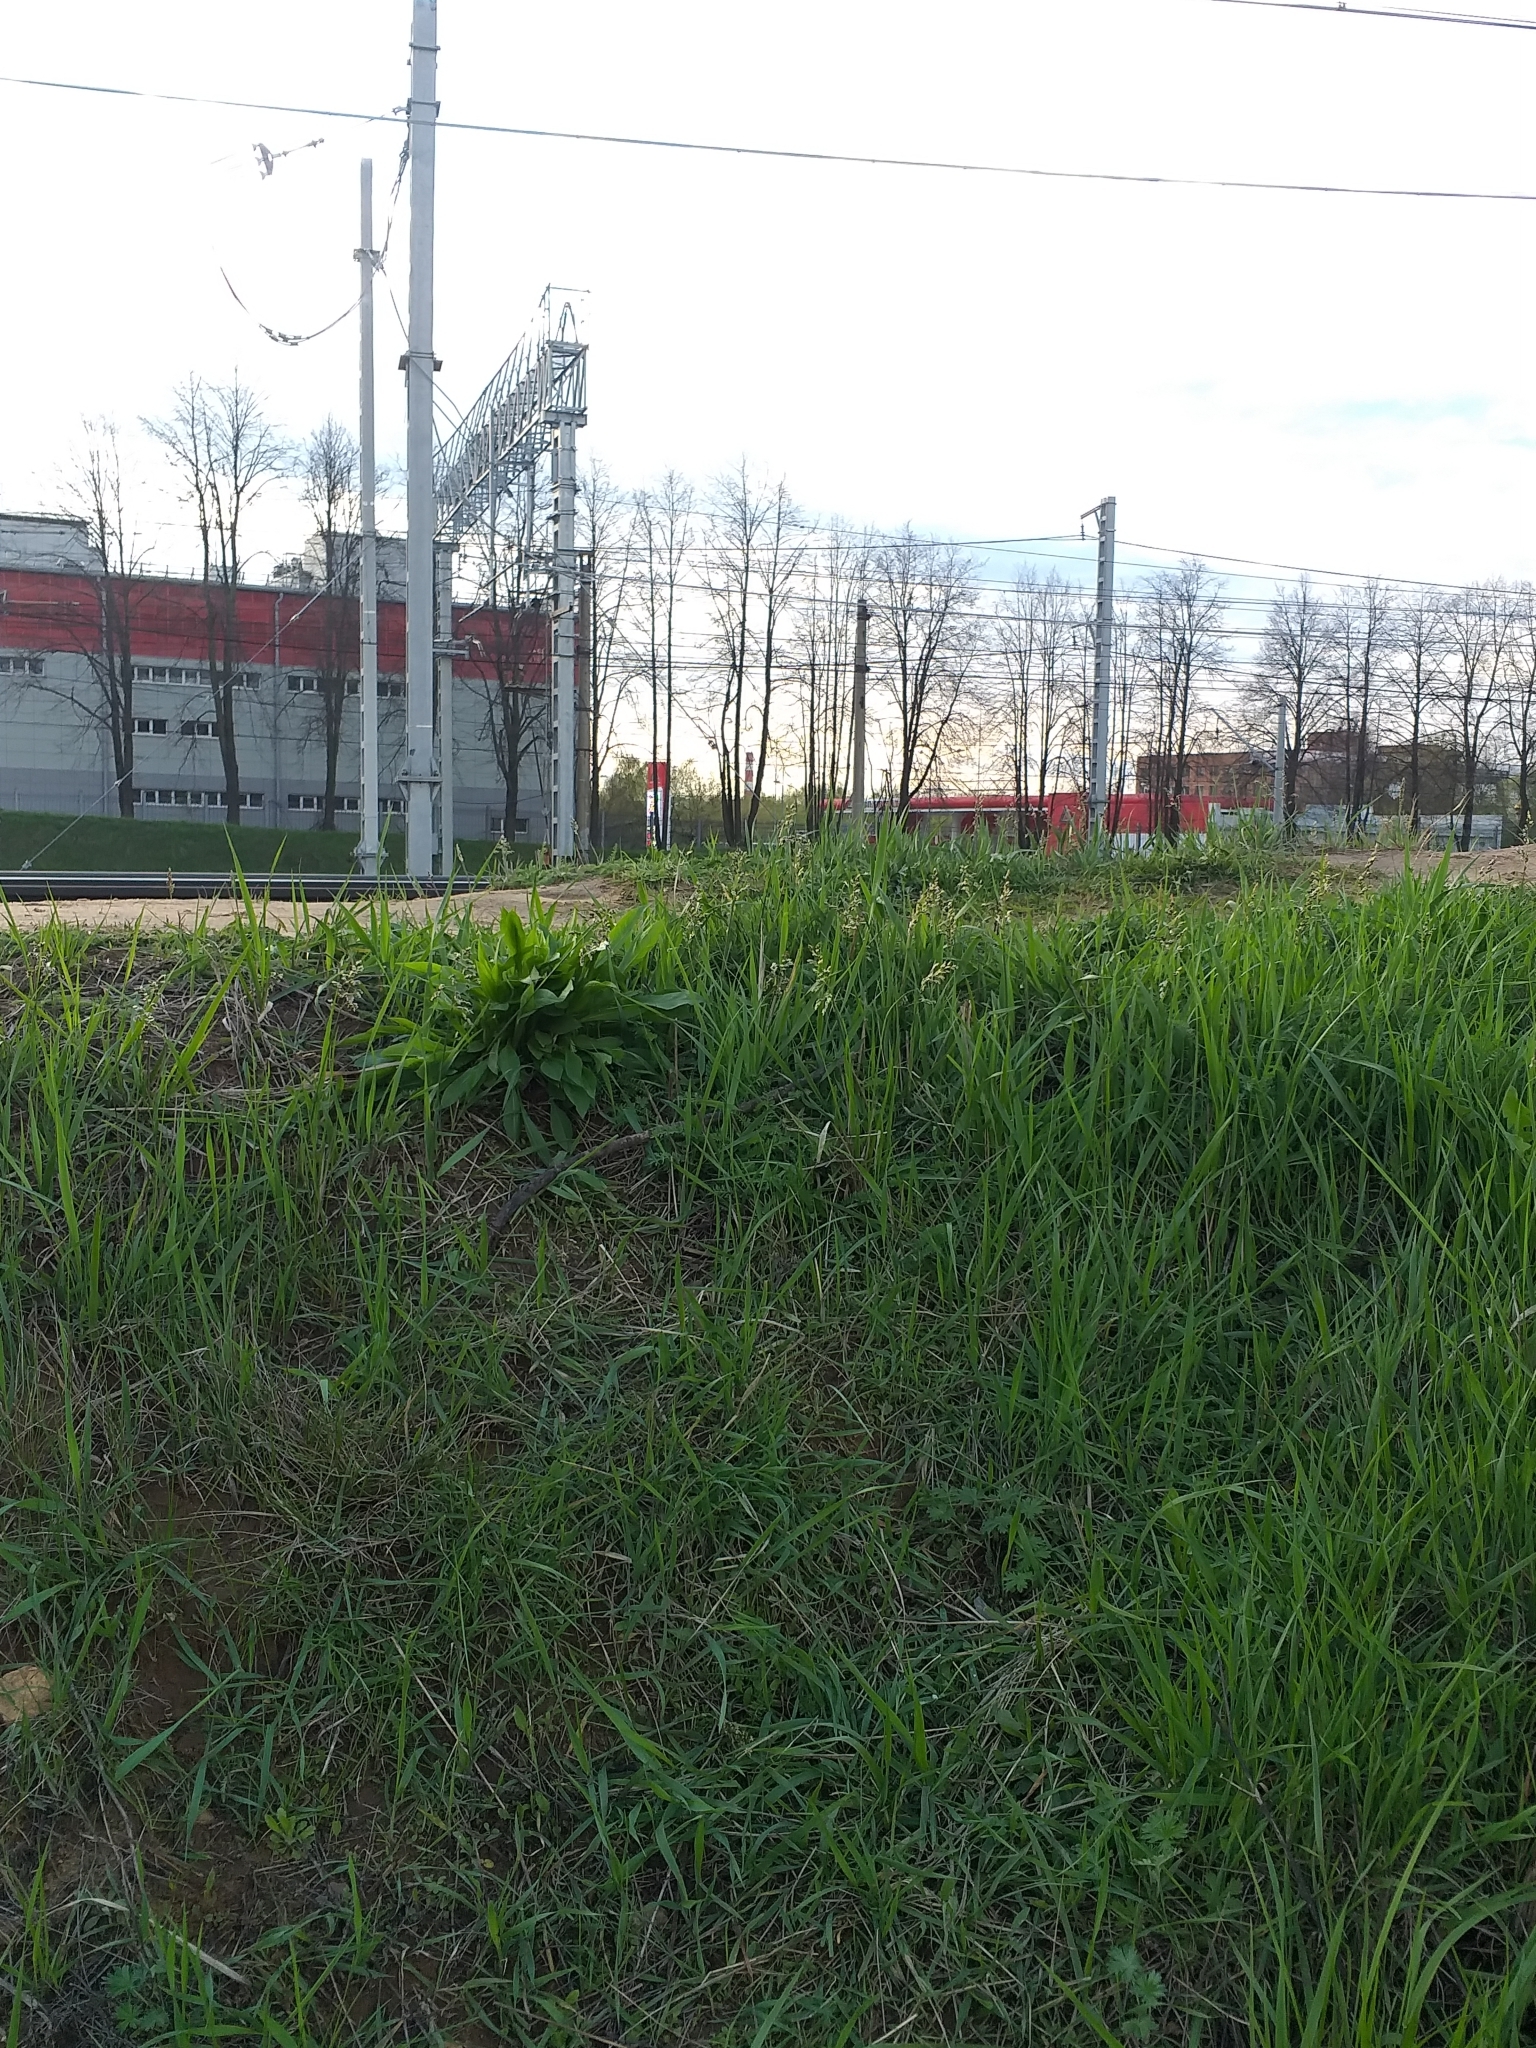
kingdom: Plantae
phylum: Tracheophyta
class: Liliopsida
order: Poales
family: Poaceae
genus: Anthoxanthum
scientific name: Anthoxanthum nitens
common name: Holy grass
